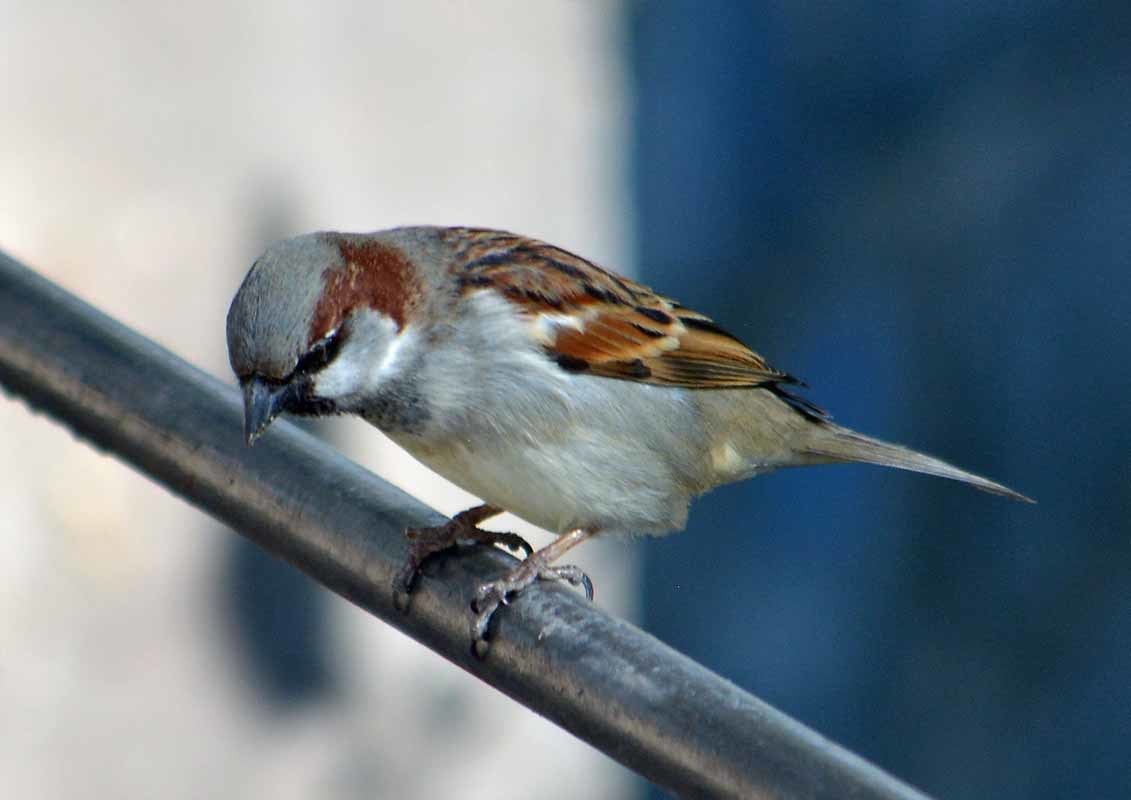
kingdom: Animalia
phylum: Chordata
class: Aves
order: Passeriformes
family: Passeridae
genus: Passer
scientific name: Passer domesticus
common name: House sparrow
